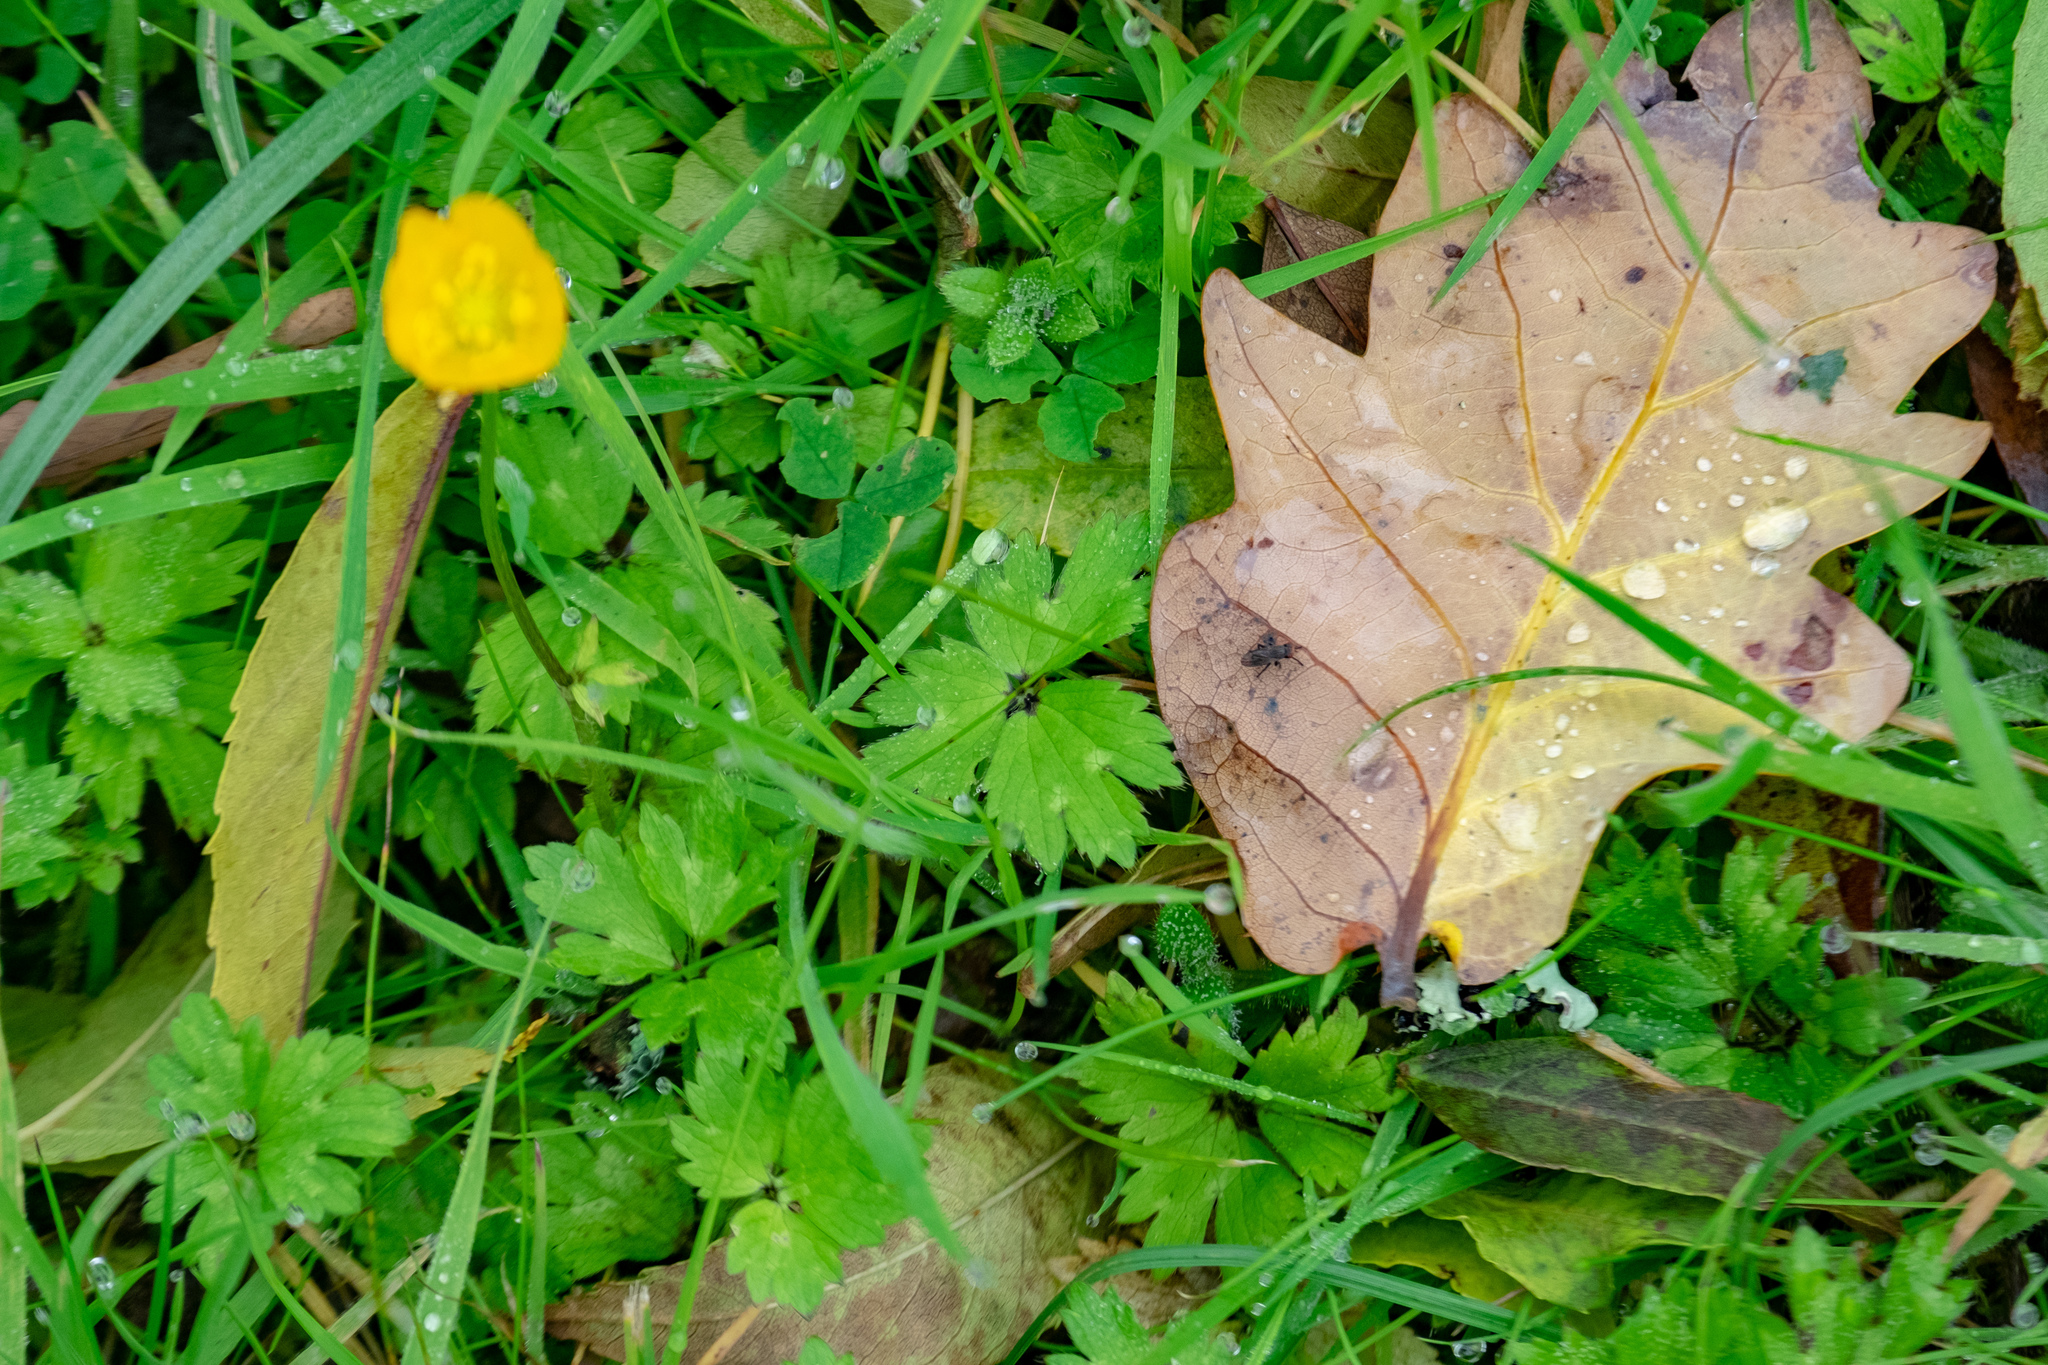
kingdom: Plantae
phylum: Tracheophyta
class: Magnoliopsida
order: Ranunculales
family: Ranunculaceae
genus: Ranunculus
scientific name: Ranunculus repens
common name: Creeping buttercup
